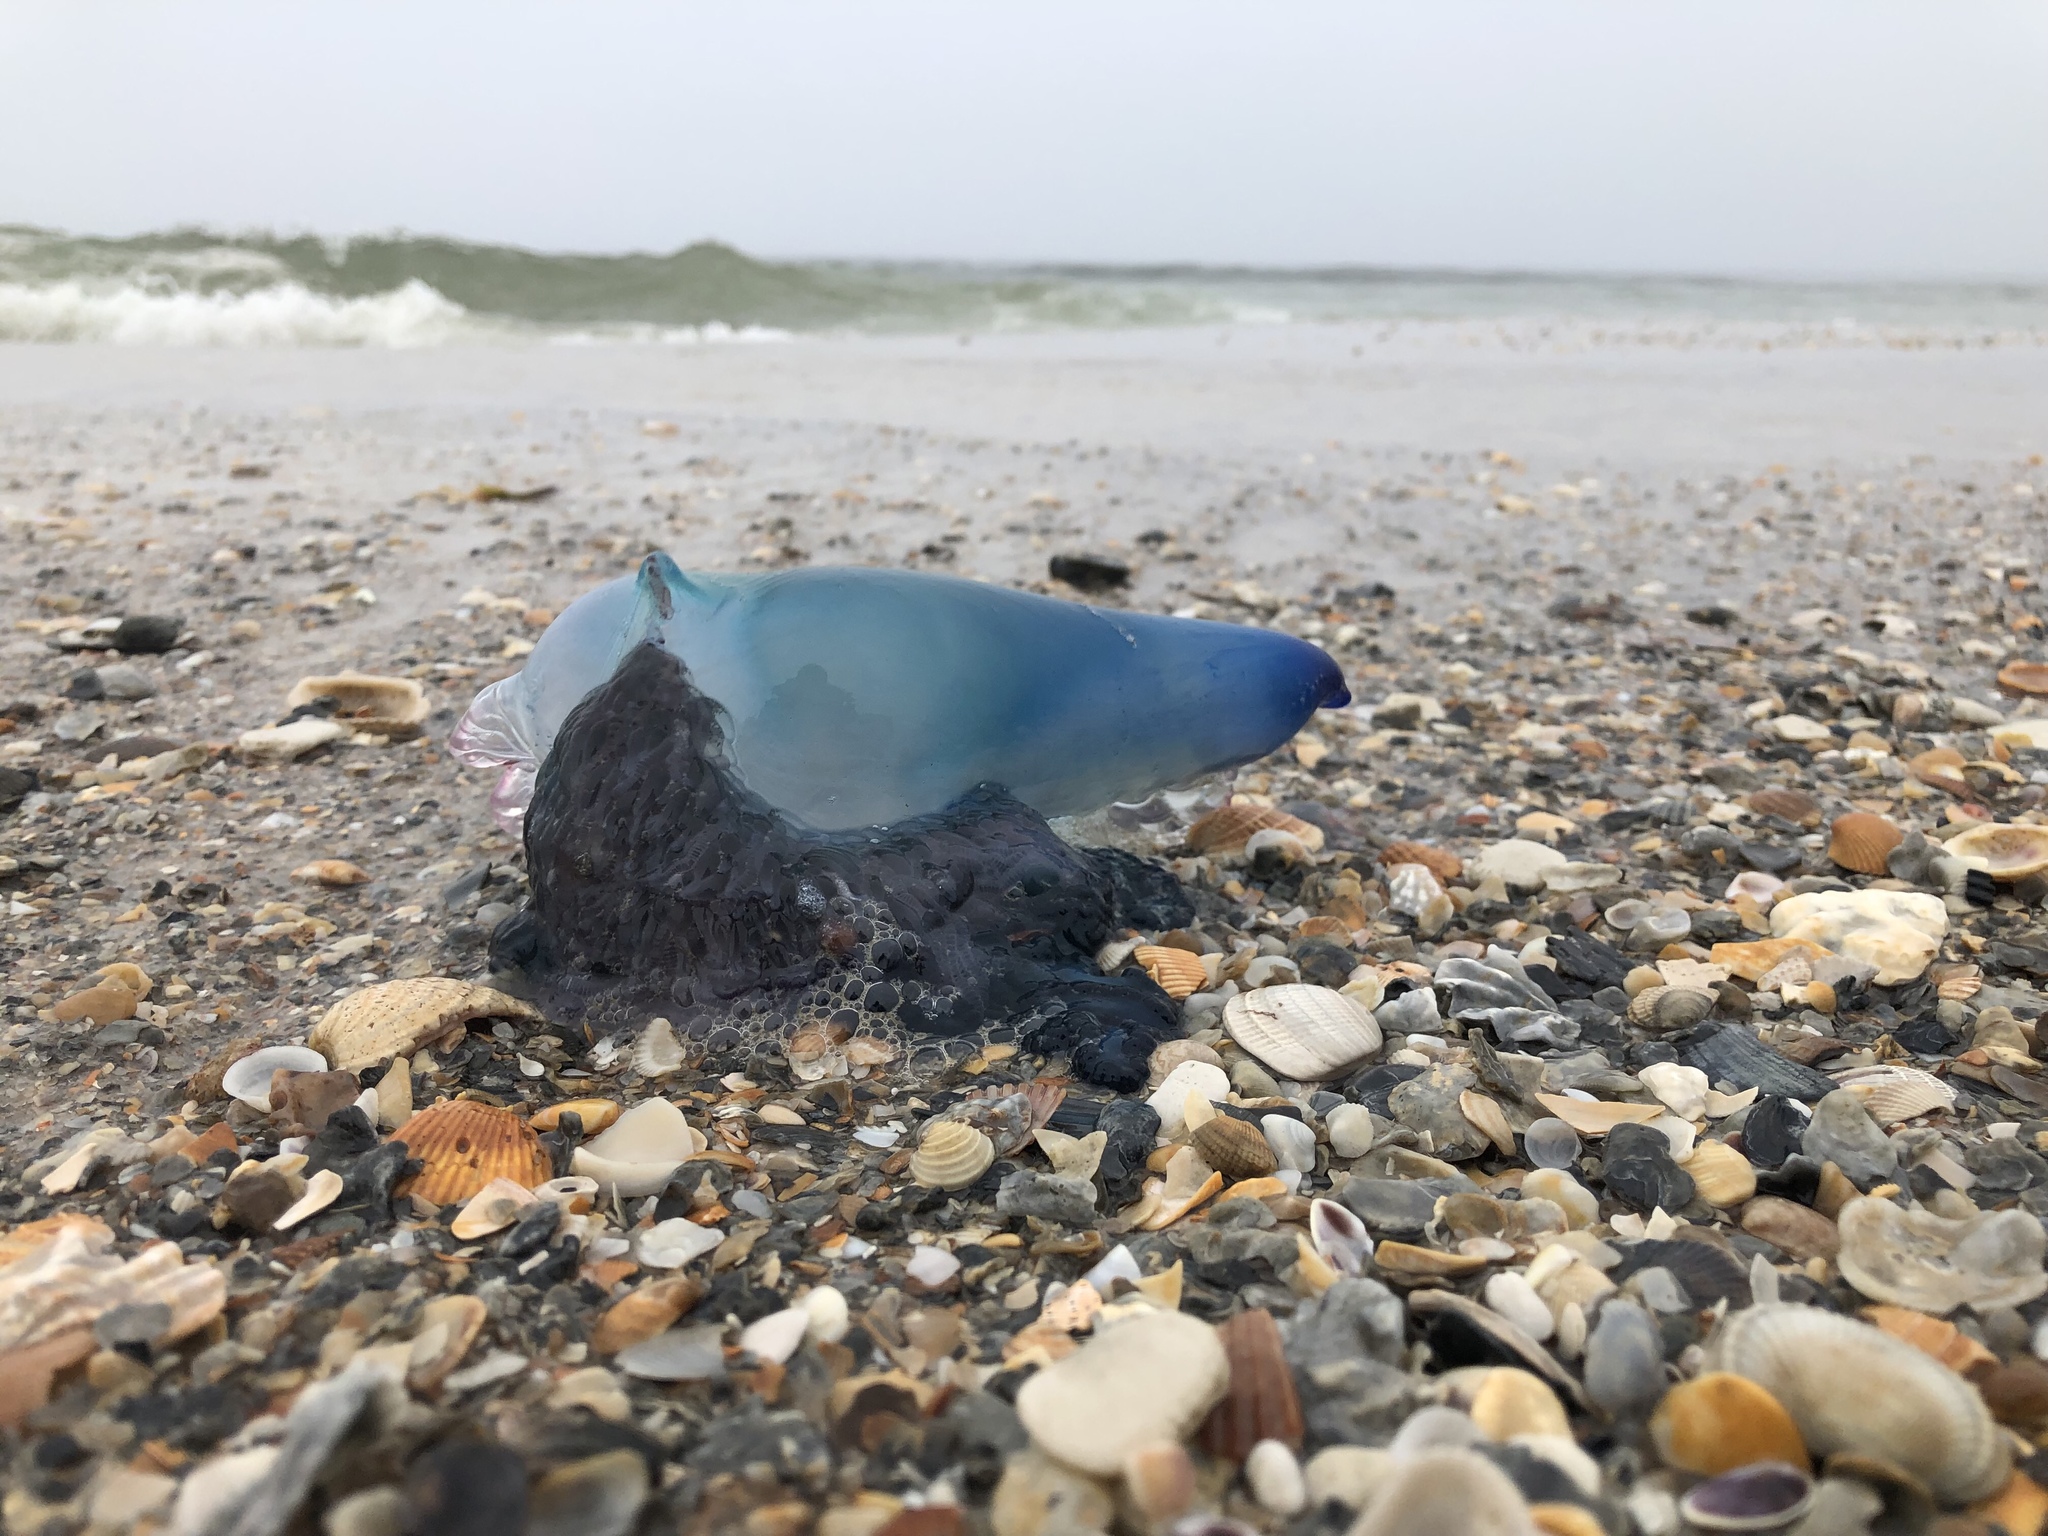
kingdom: Animalia
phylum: Cnidaria
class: Hydrozoa
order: Siphonophorae
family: Physaliidae
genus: Physalia
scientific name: Physalia physalis
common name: Portuguese man-of-war
